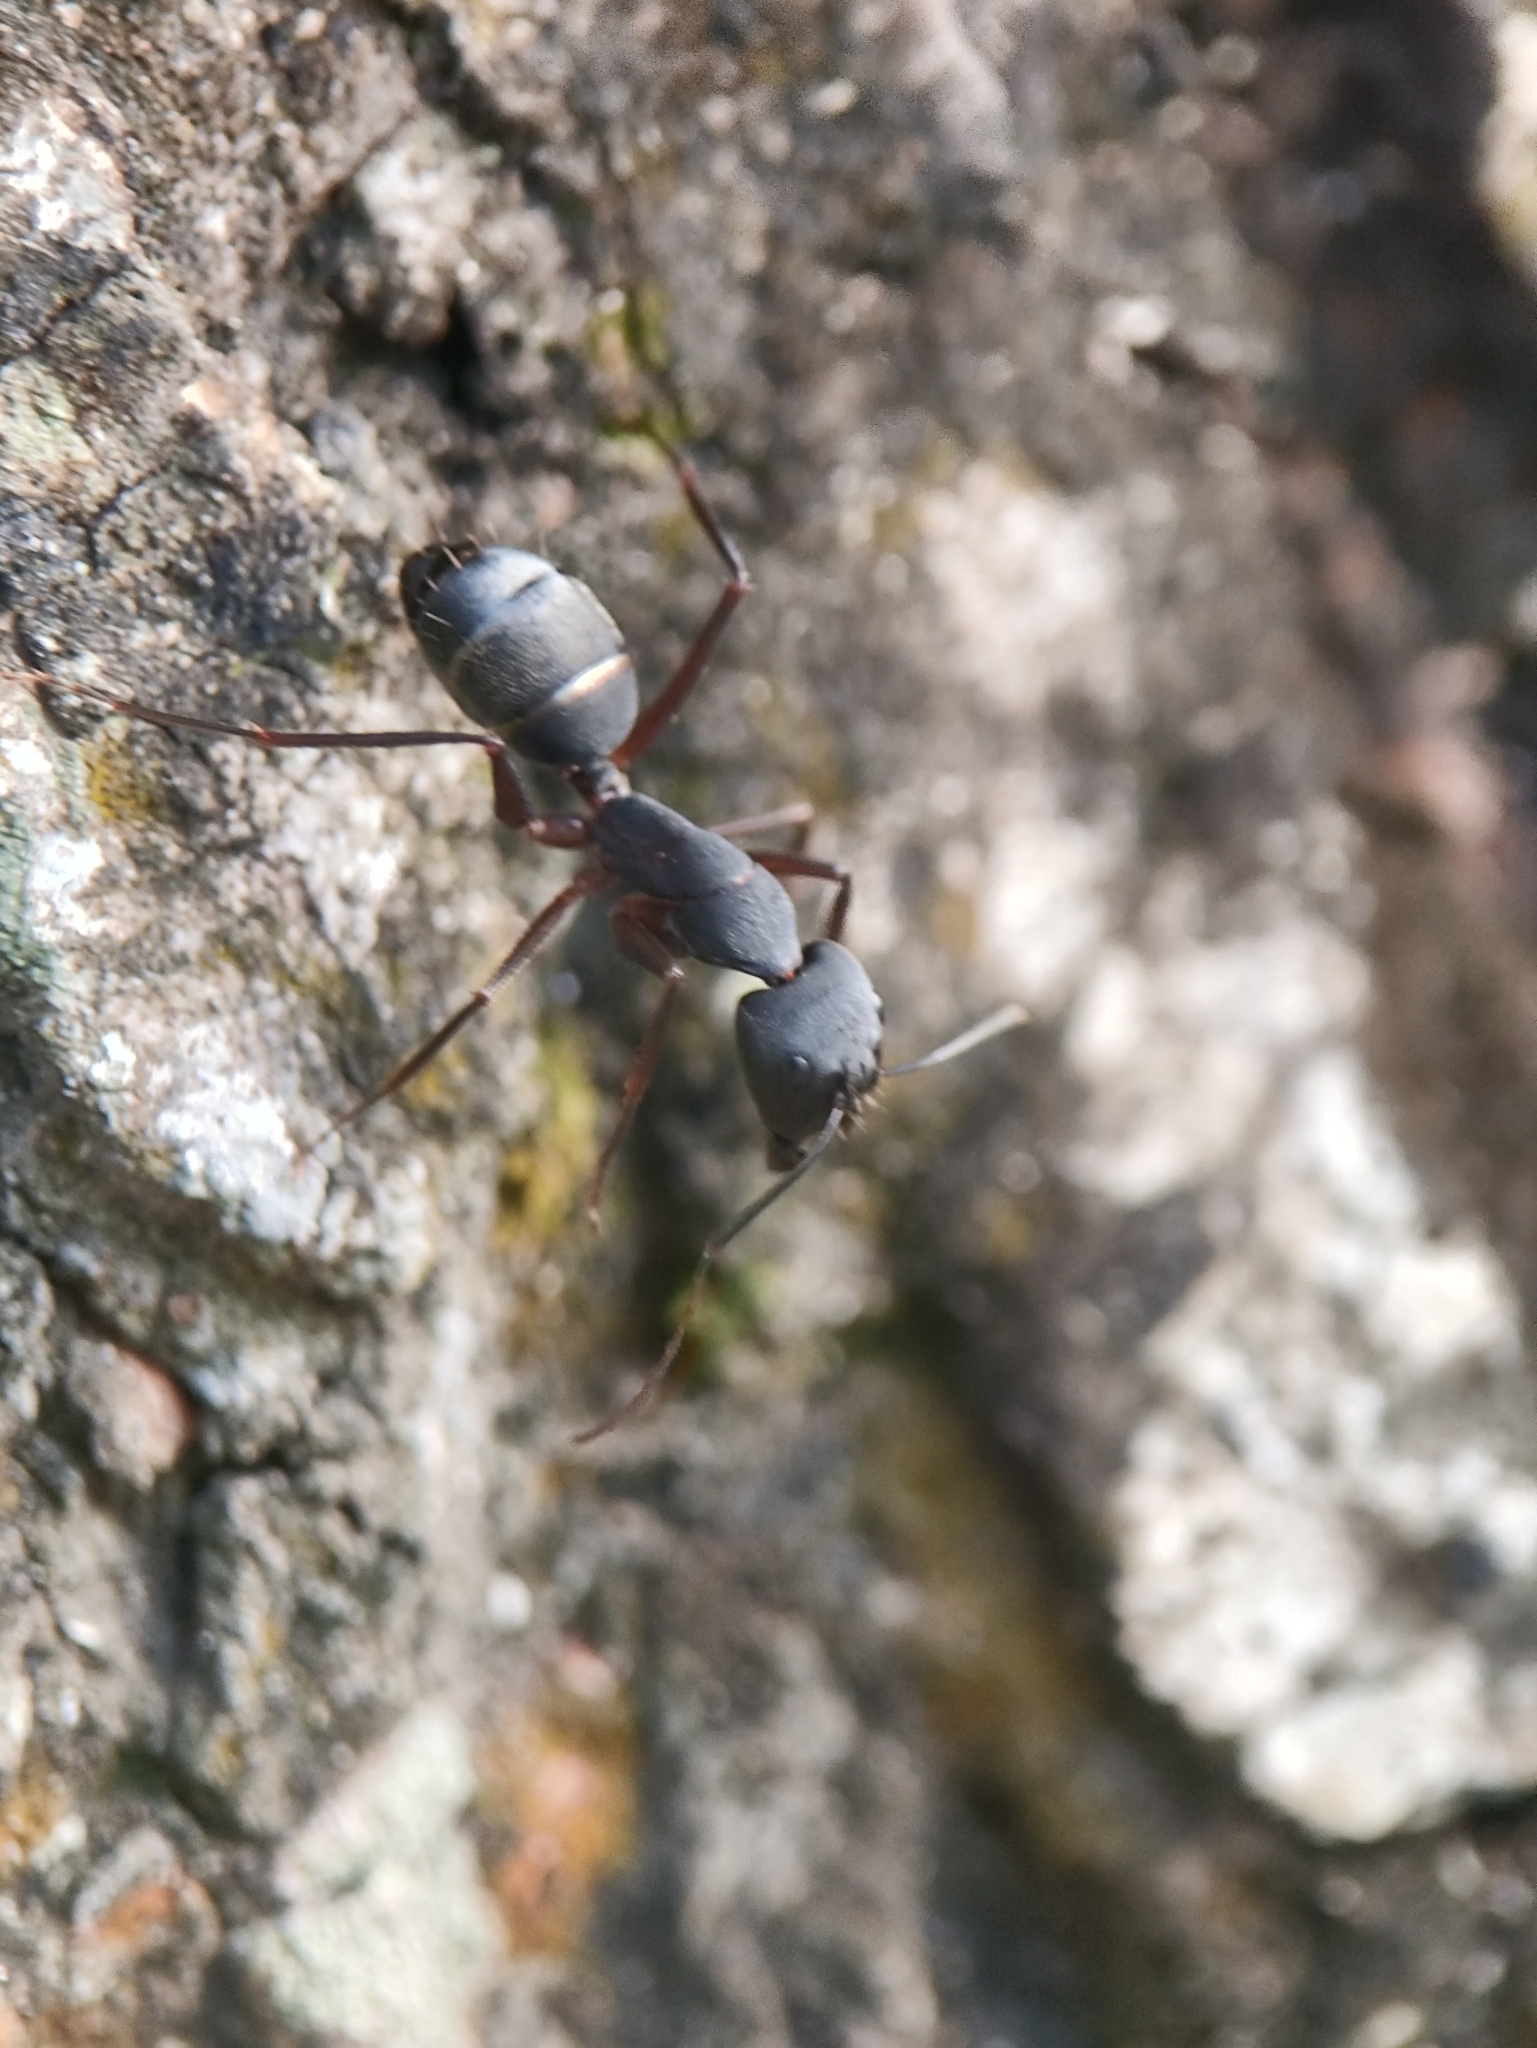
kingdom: Animalia
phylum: Arthropoda
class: Insecta
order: Hymenoptera
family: Formicidae
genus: Camponotus
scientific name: Camponotus compressus
